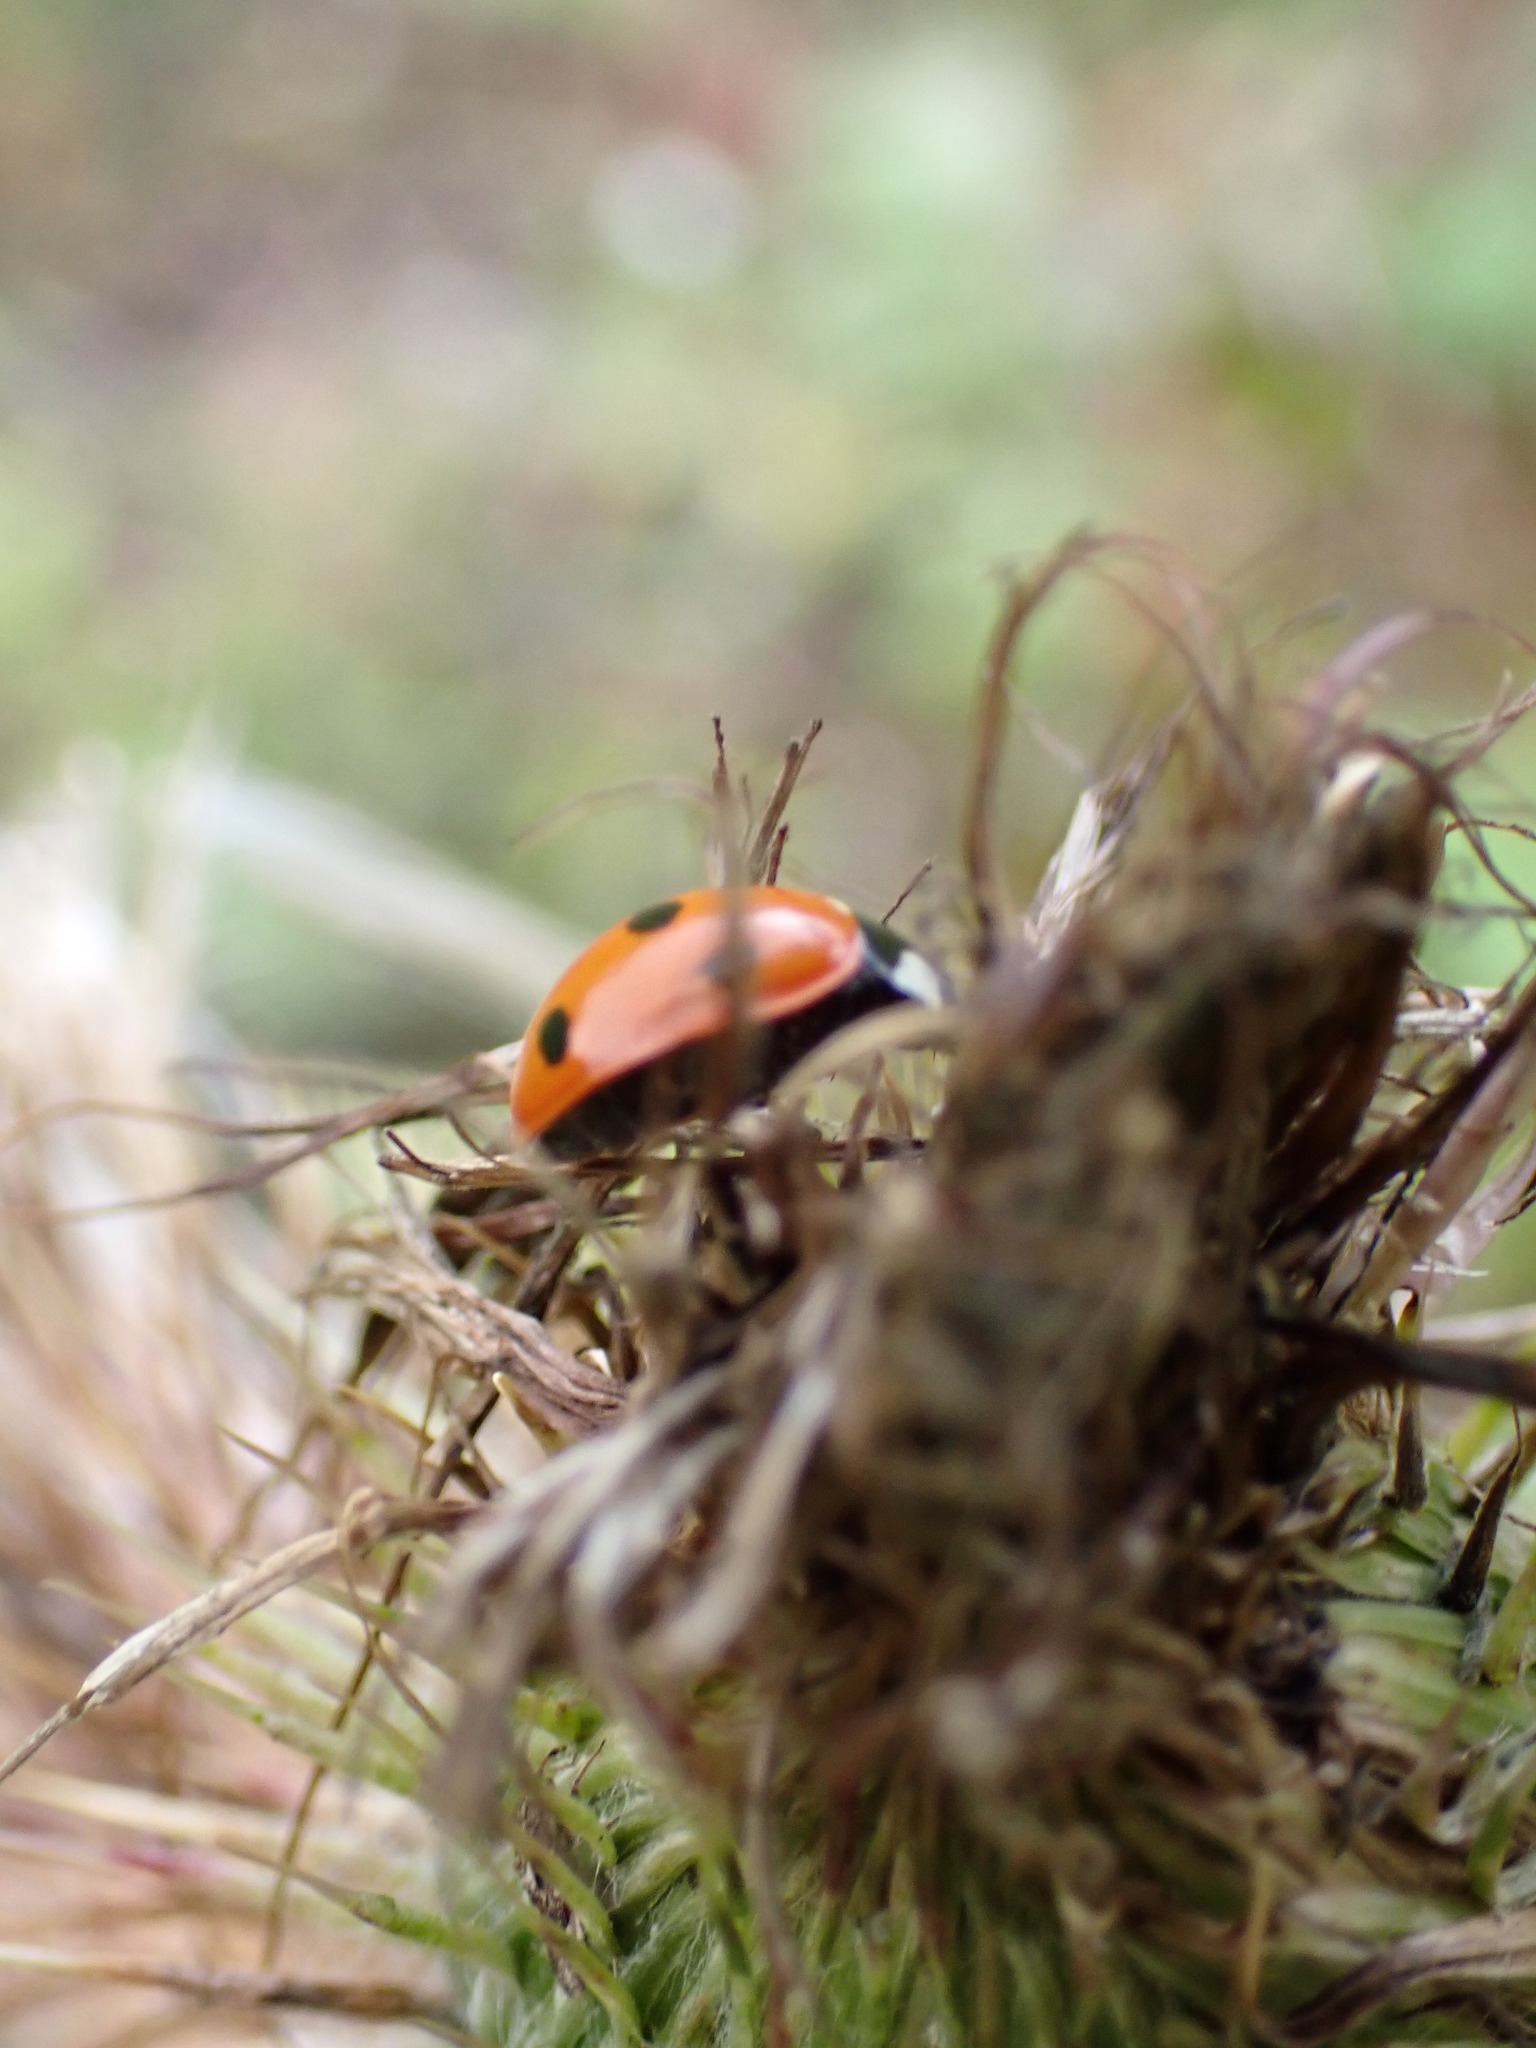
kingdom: Animalia
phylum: Arthropoda
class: Insecta
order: Coleoptera
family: Coccinellidae
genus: Coccinella
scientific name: Coccinella septempunctata
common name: Sevenspotted lady beetle
